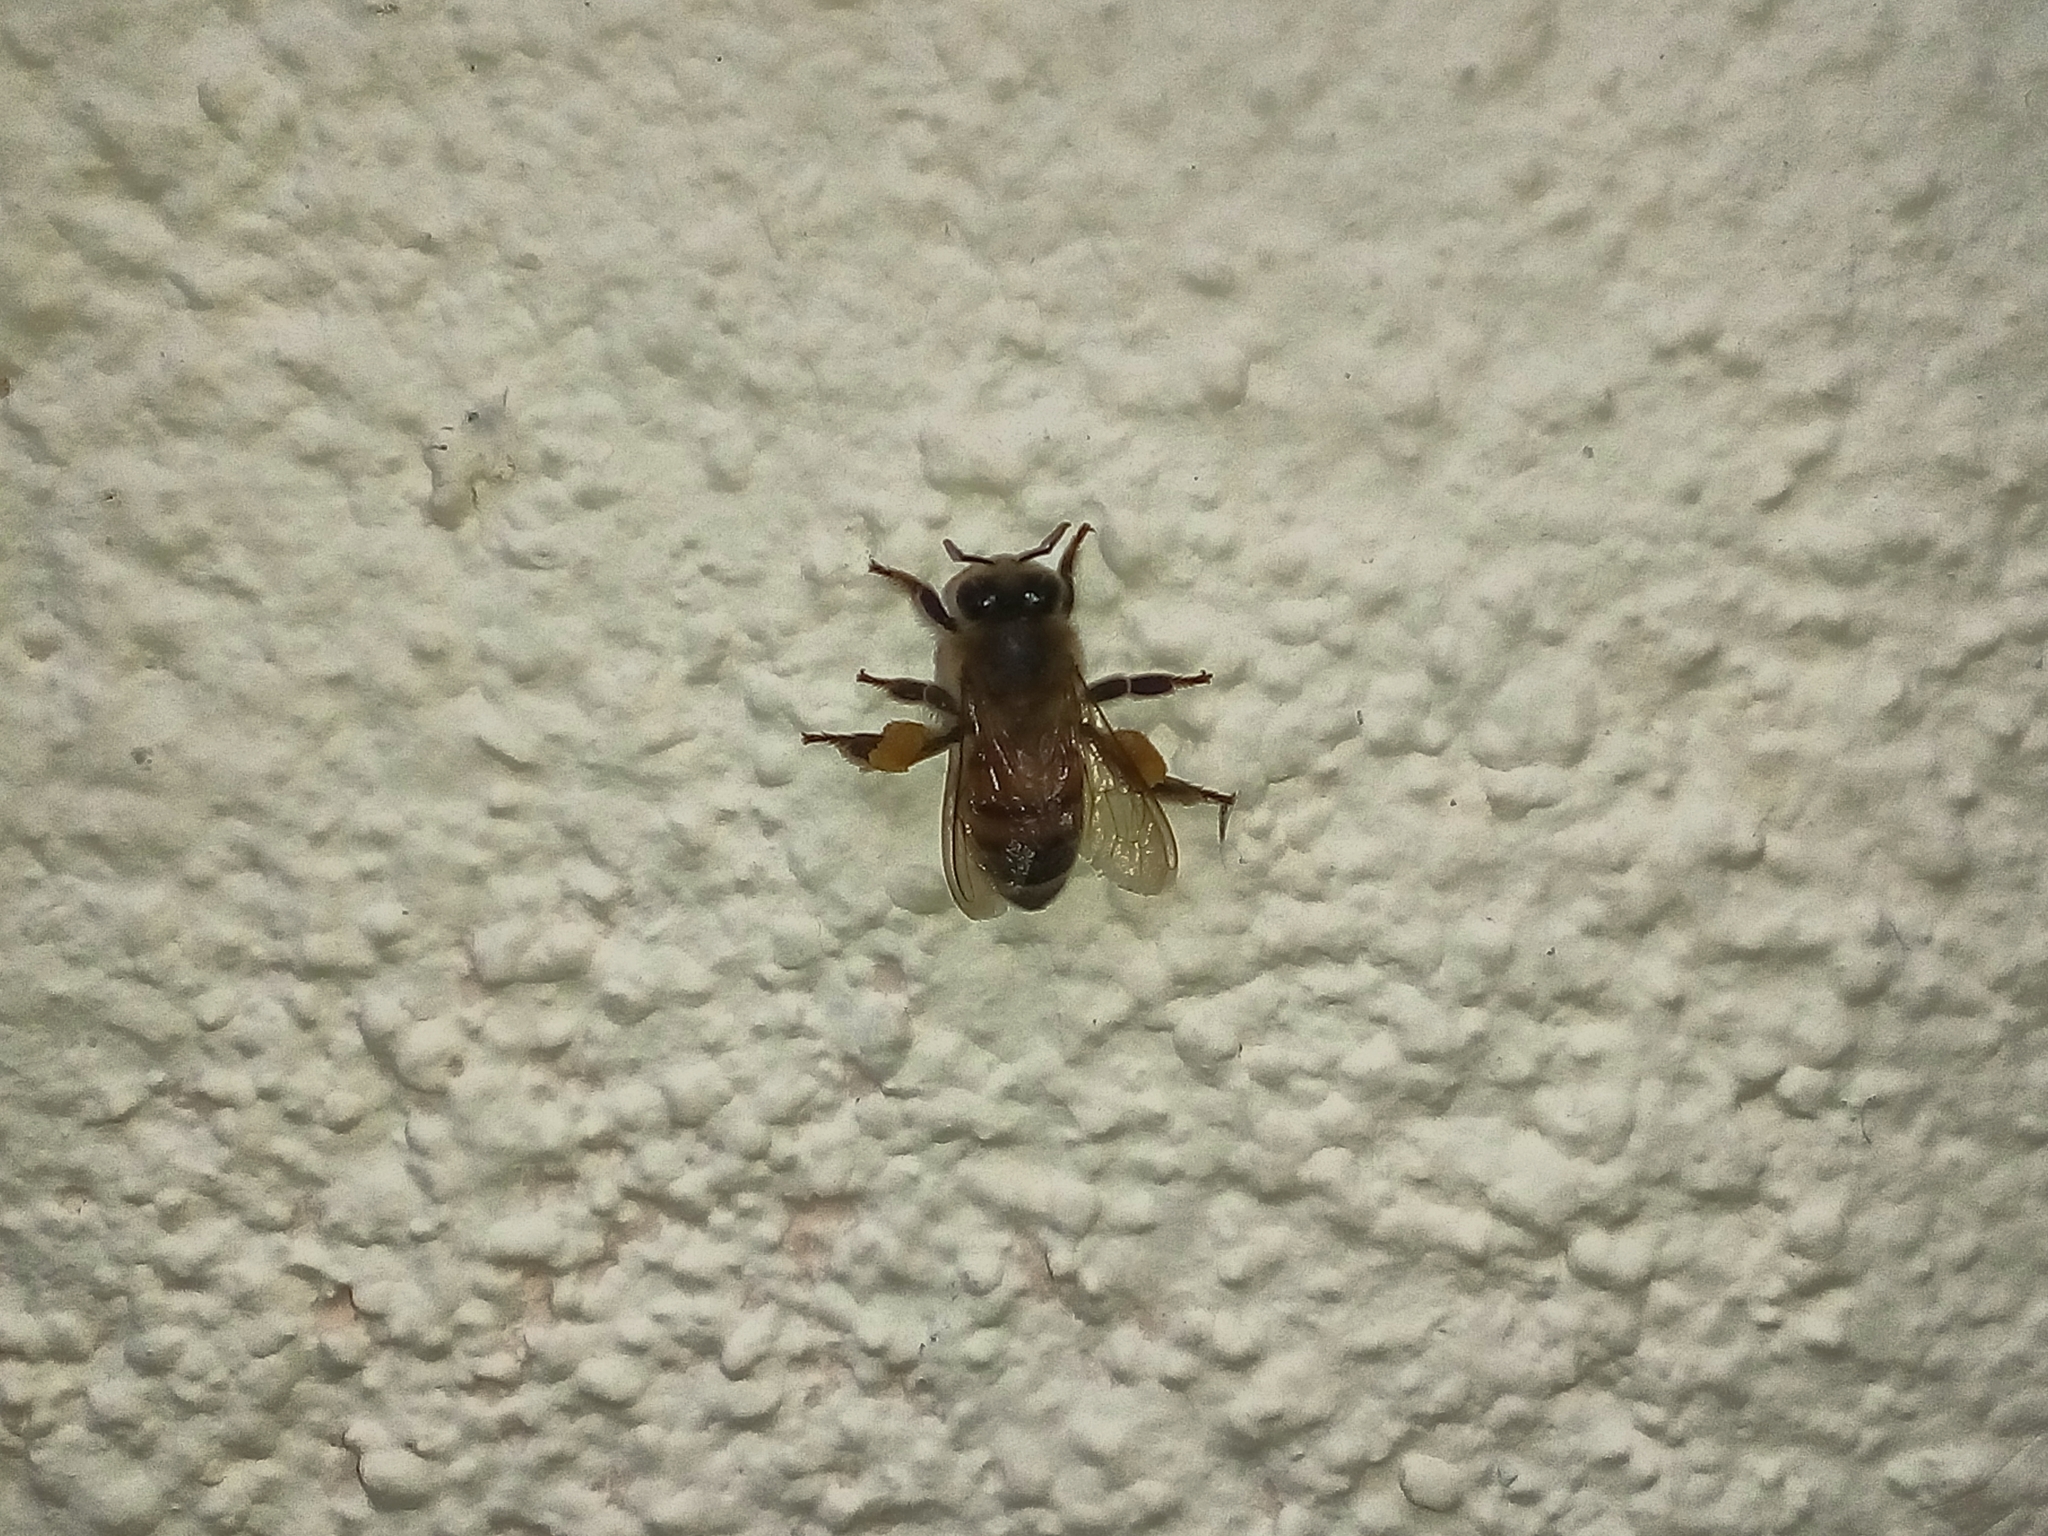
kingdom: Animalia
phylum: Arthropoda
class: Insecta
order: Hymenoptera
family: Apidae
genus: Apis
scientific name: Apis mellifera
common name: Honey bee
